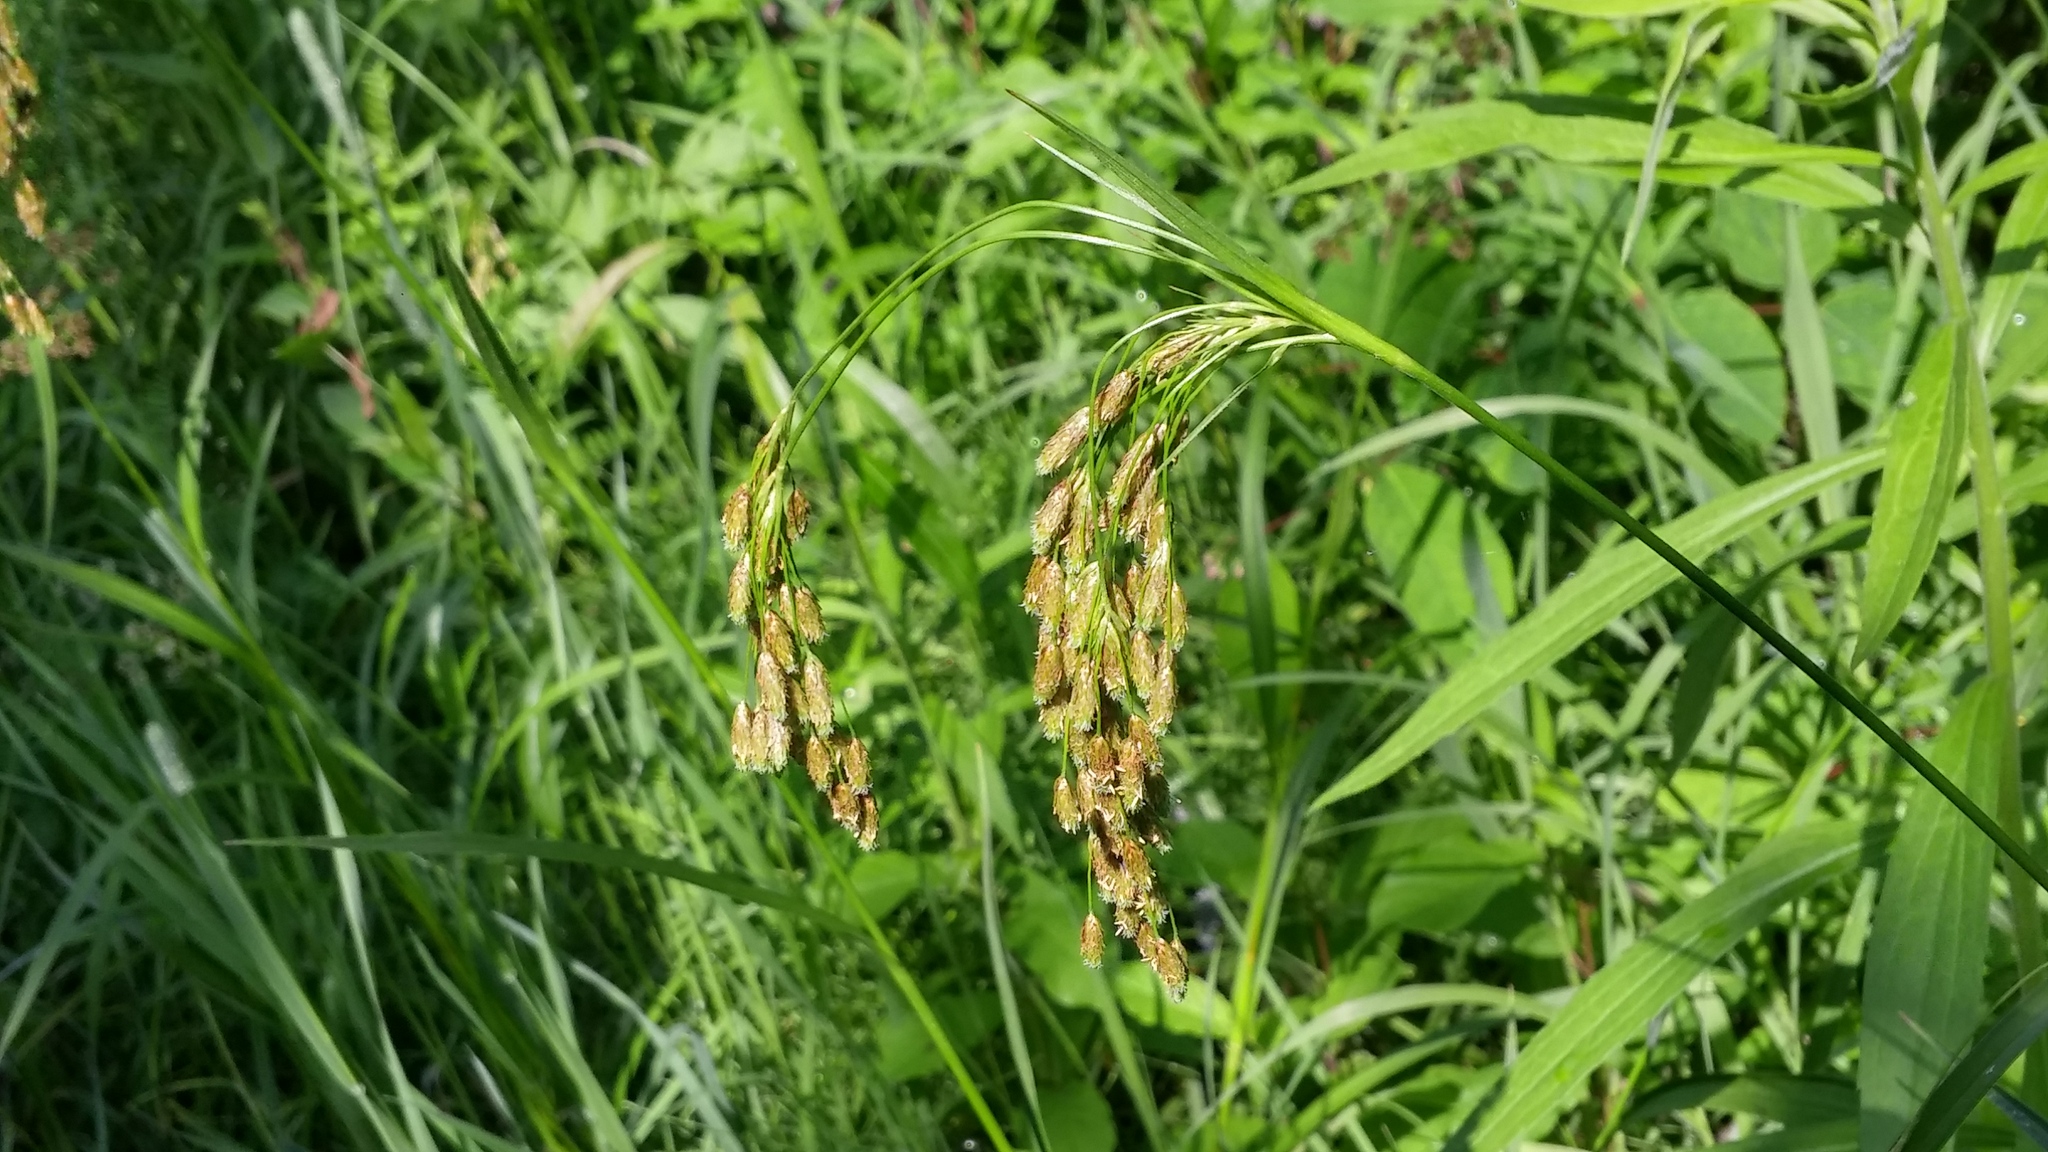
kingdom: Plantae
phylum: Tracheophyta
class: Liliopsida
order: Poales
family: Cyperaceae
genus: Scirpus
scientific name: Scirpus pendulus
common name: Nodding bulrush
